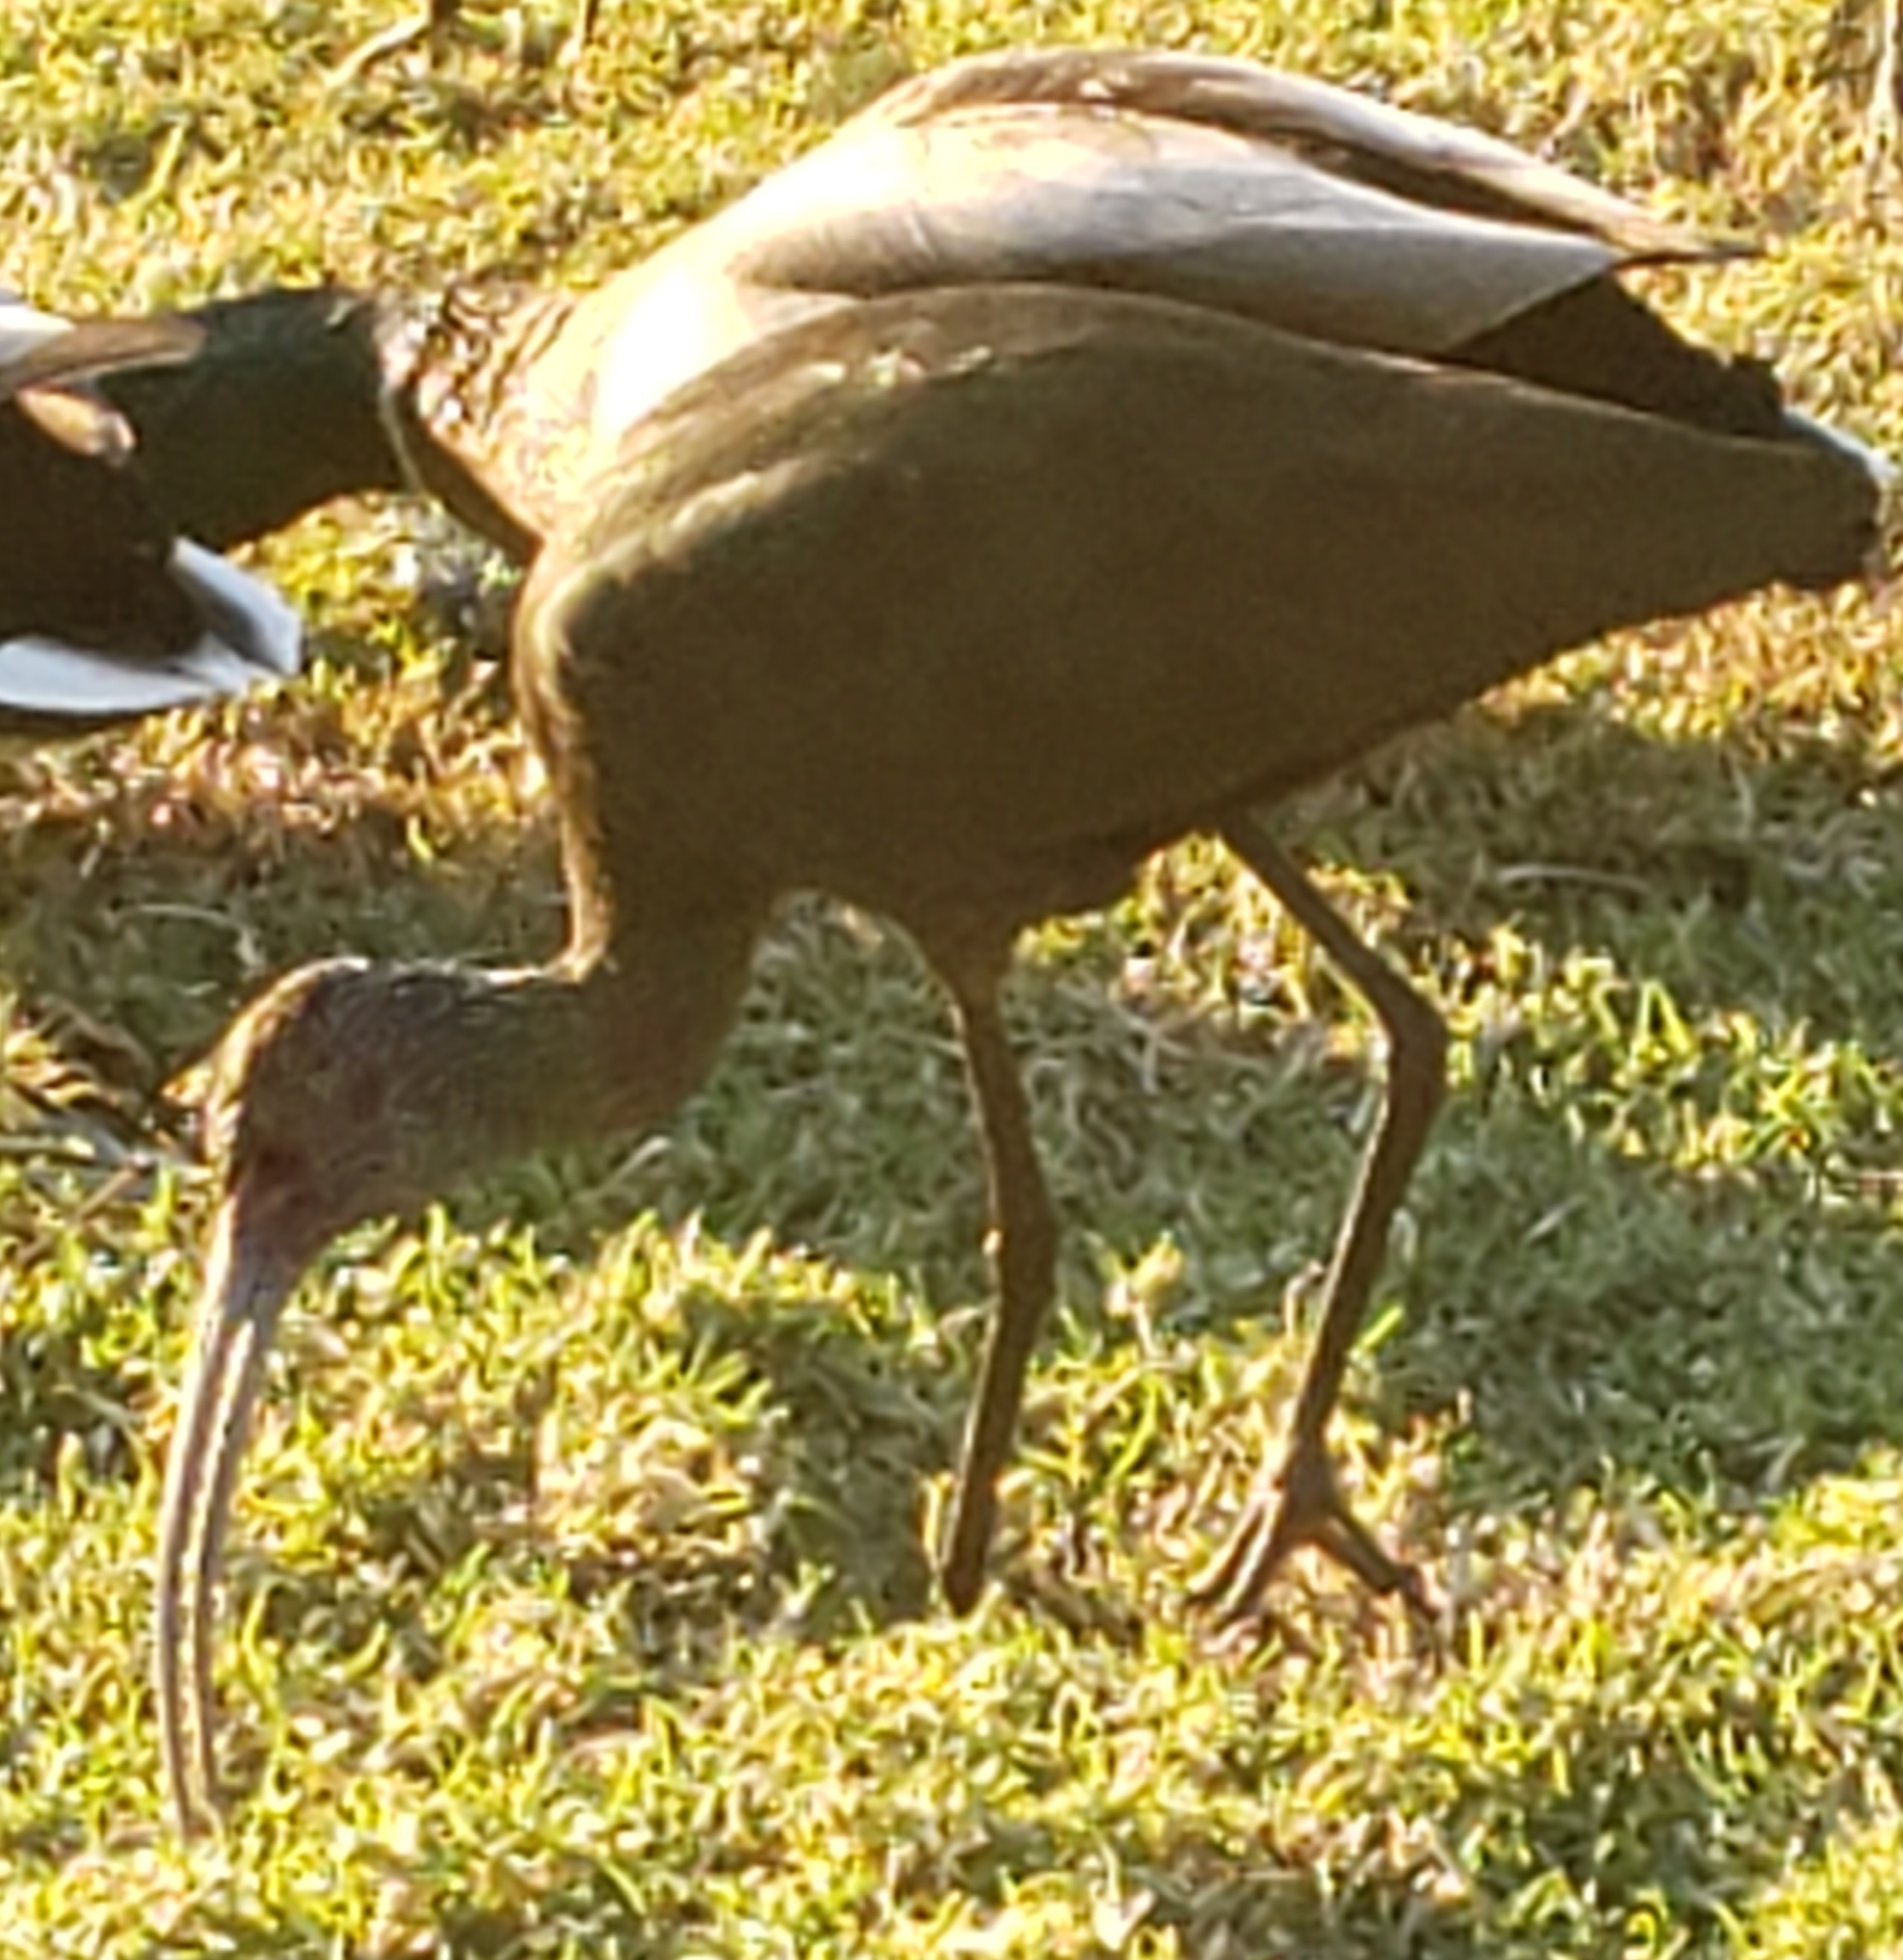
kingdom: Animalia
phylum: Chordata
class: Aves
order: Pelecaniformes
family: Threskiornithidae
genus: Plegadis
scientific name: Plegadis chihi
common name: White-faced ibis
